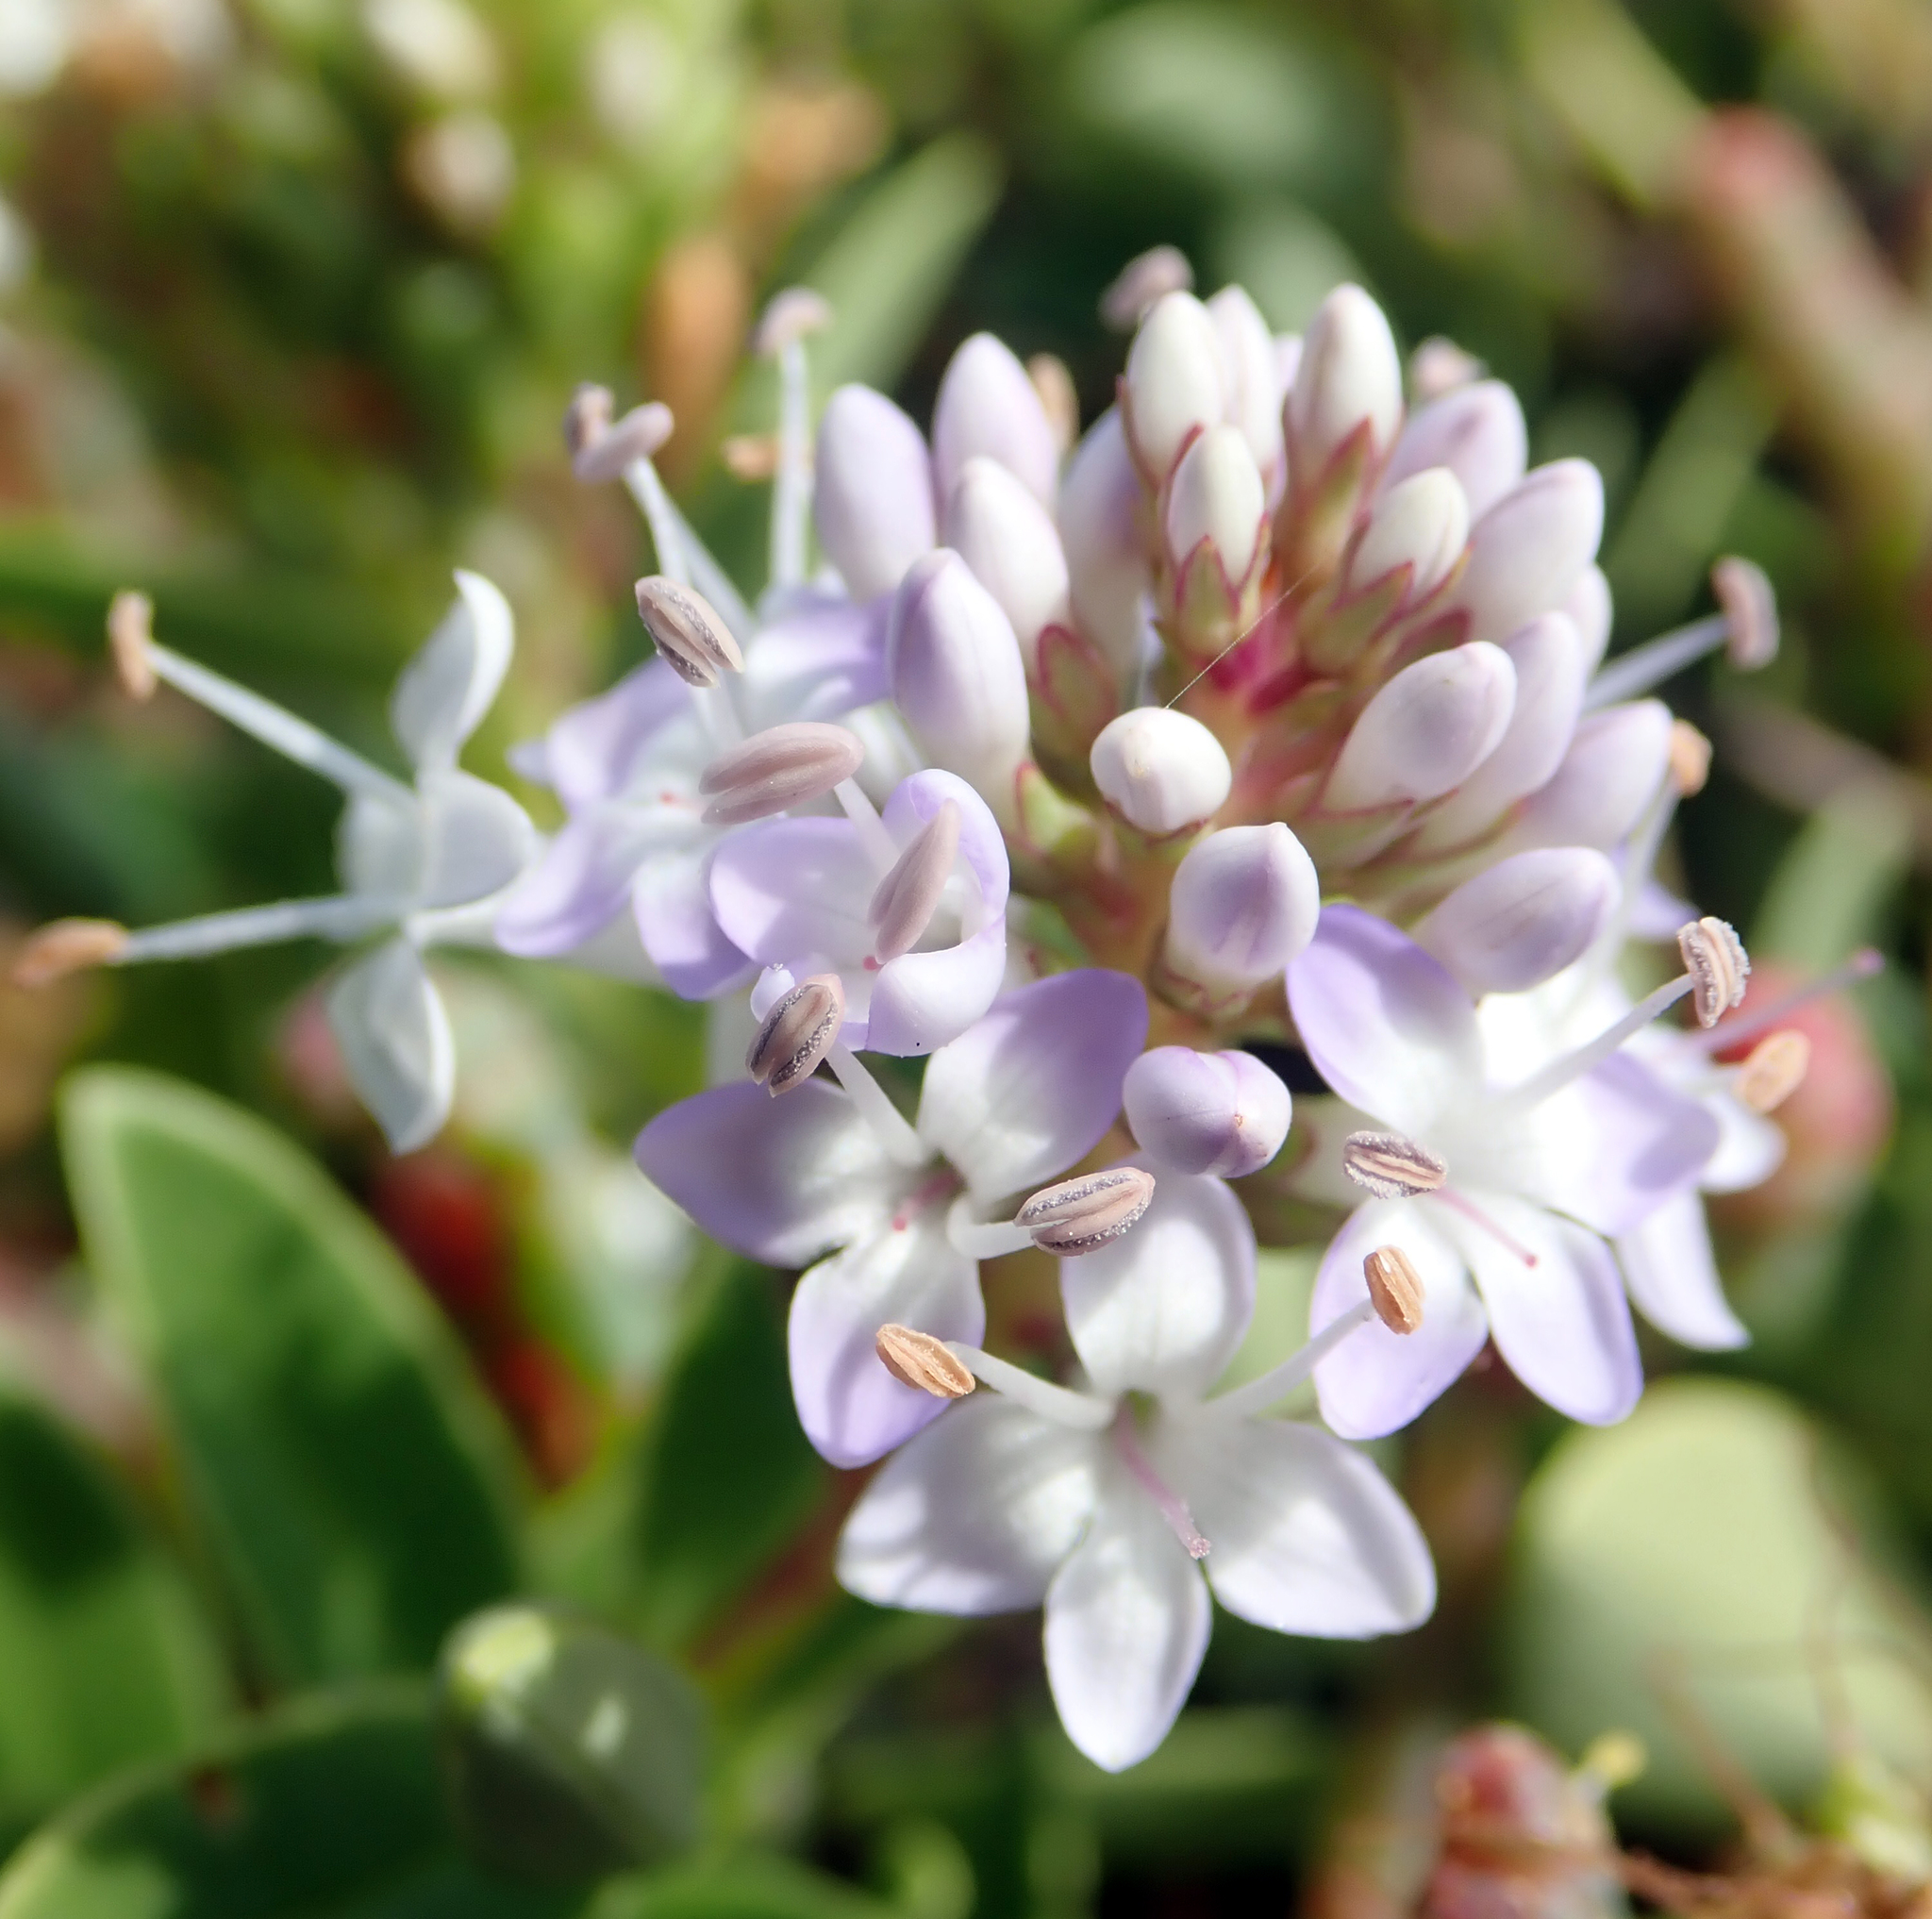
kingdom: Plantae
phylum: Tracheophyta
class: Magnoliopsida
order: Lamiales
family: Plantaginaceae
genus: Veronica
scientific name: Veronica chathamica
